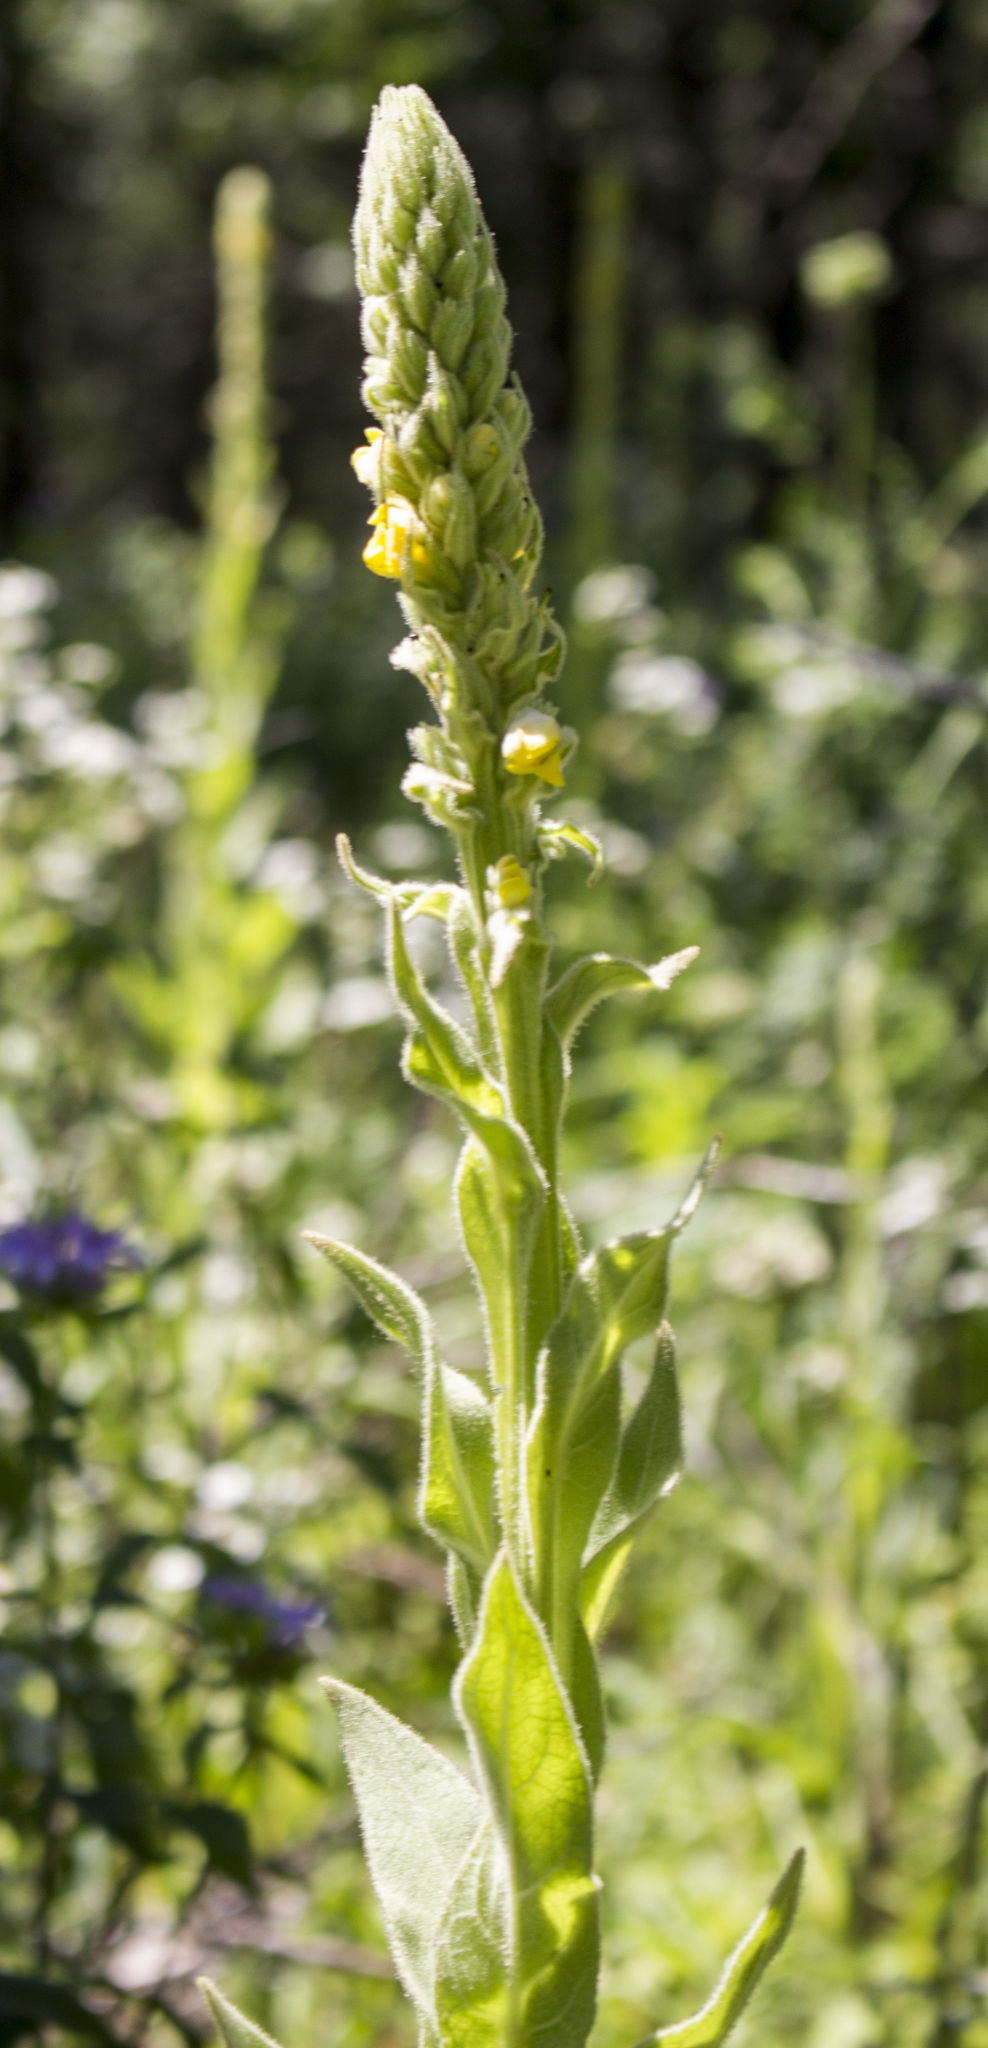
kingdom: Plantae
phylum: Tracheophyta
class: Magnoliopsida
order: Lamiales
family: Scrophulariaceae
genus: Verbascum
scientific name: Verbascum thapsus
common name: Common mullein
